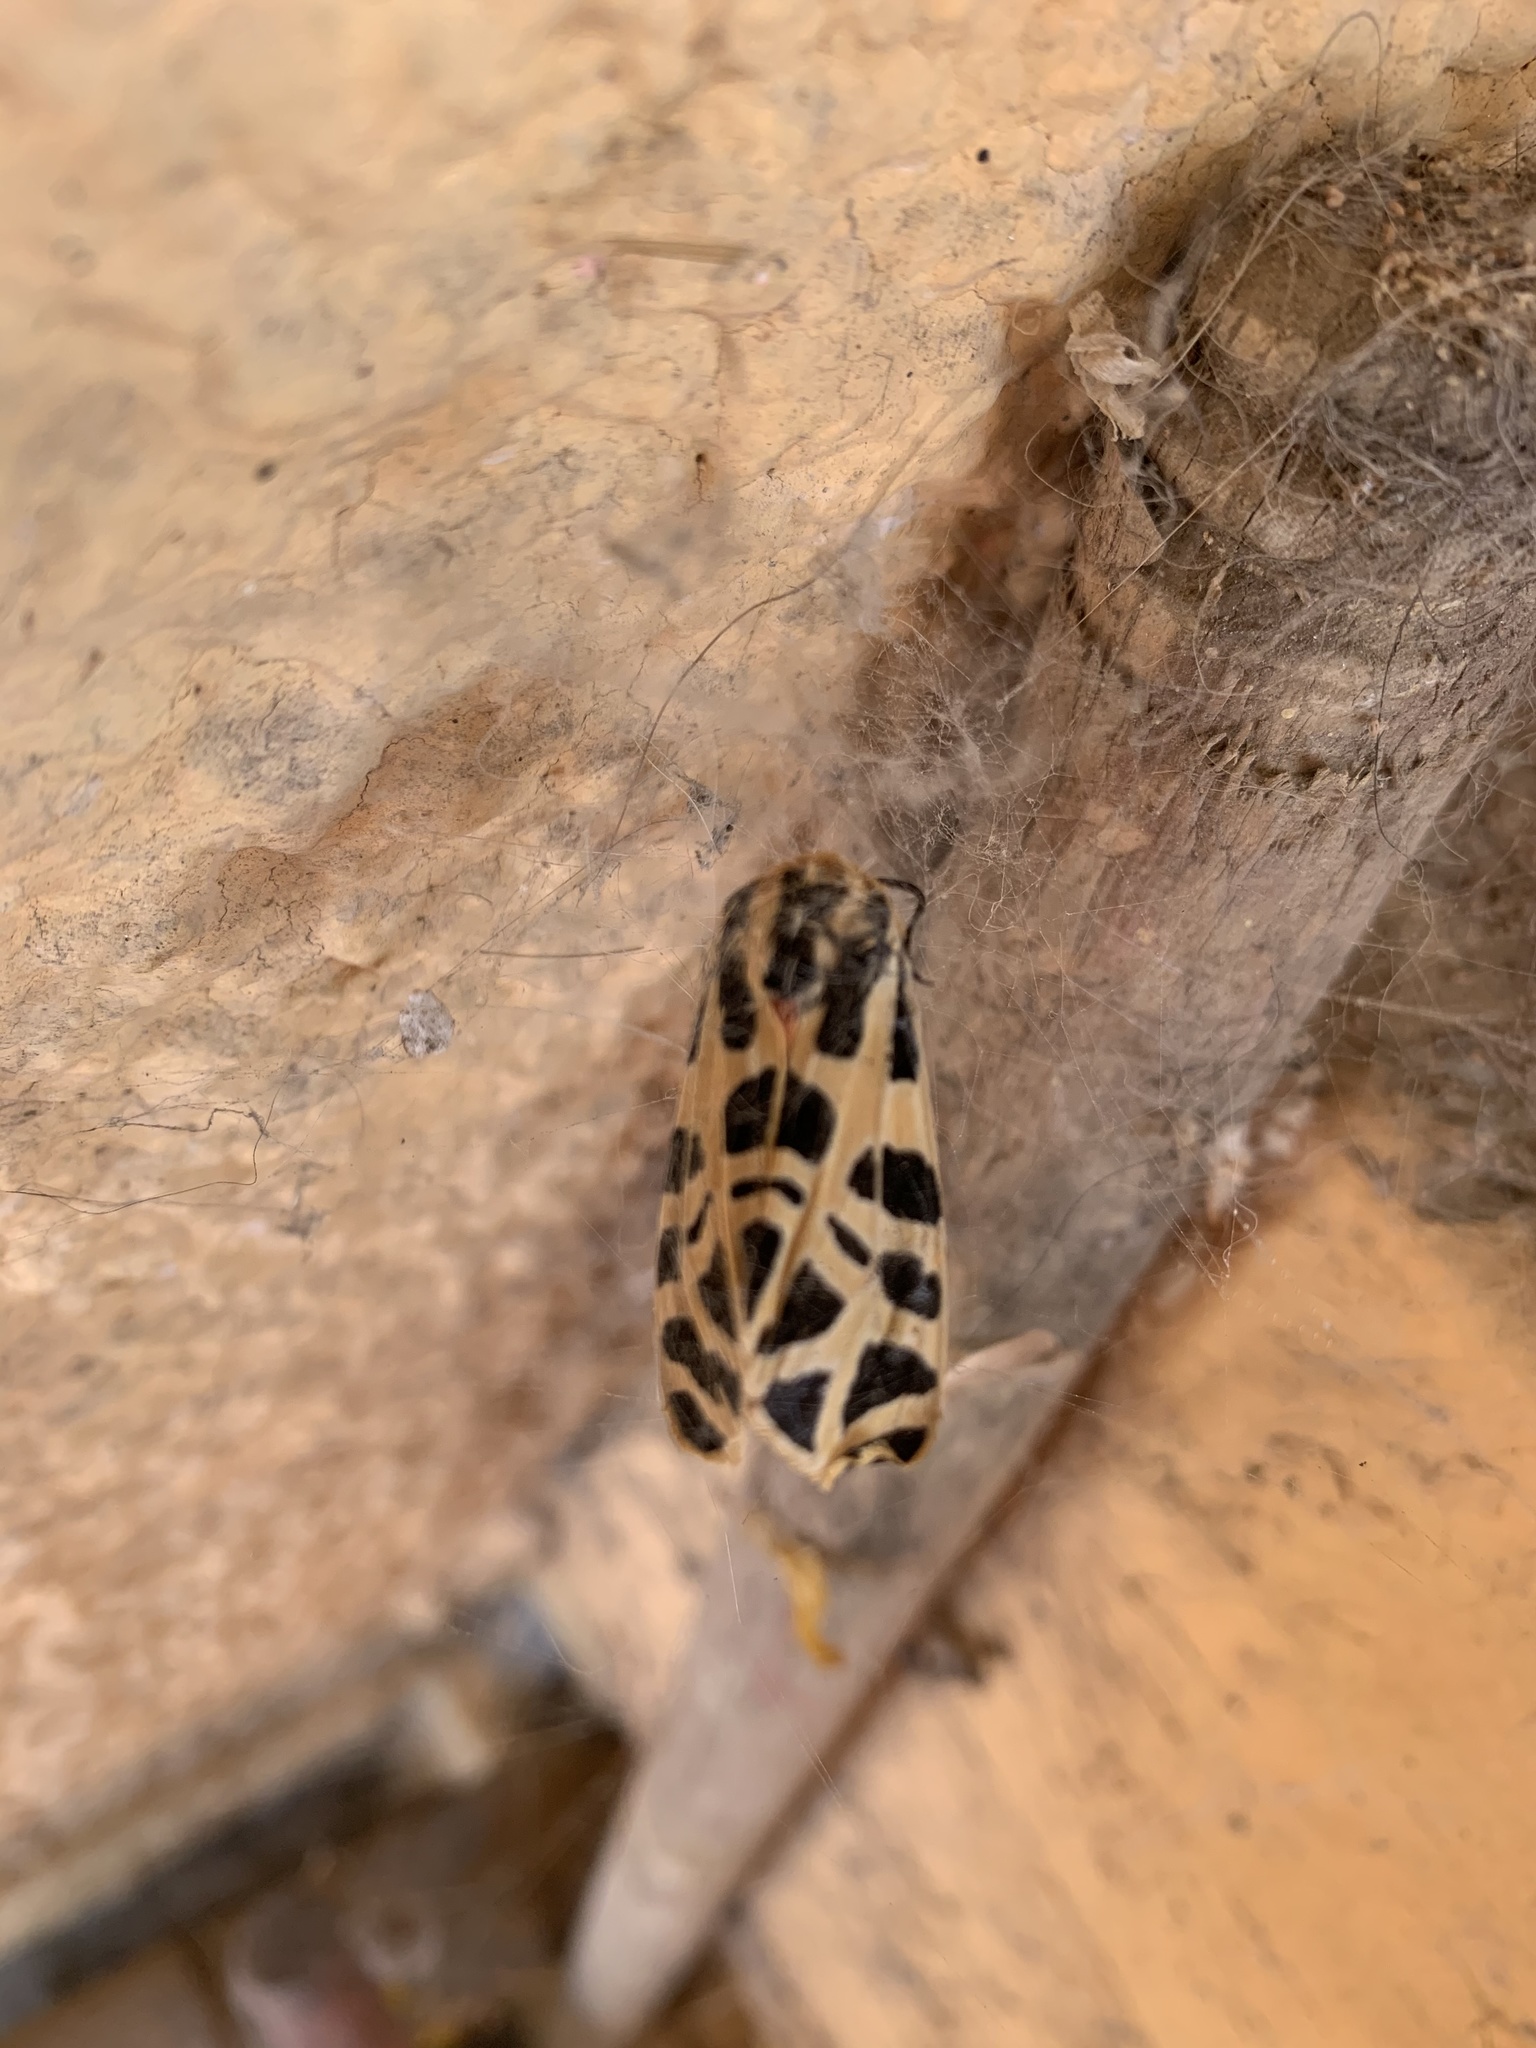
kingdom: Animalia
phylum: Arthropoda
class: Insecta
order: Lepidoptera
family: Erebidae
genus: Apantesis
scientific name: Apantesis
